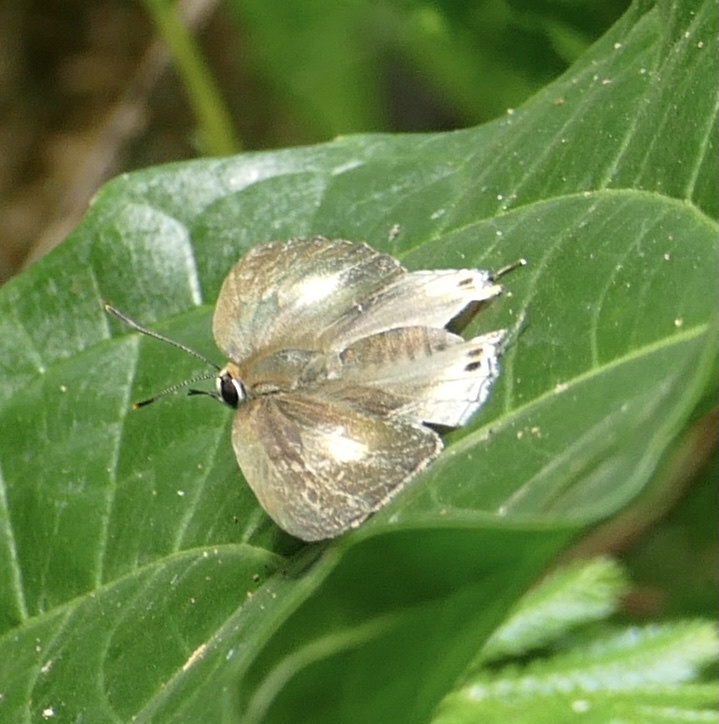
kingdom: Animalia
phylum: Arthropoda
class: Insecta
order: Lepidoptera
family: Lycaenidae
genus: Deudorix
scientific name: Deudorix lorisona
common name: Coffee playboy
